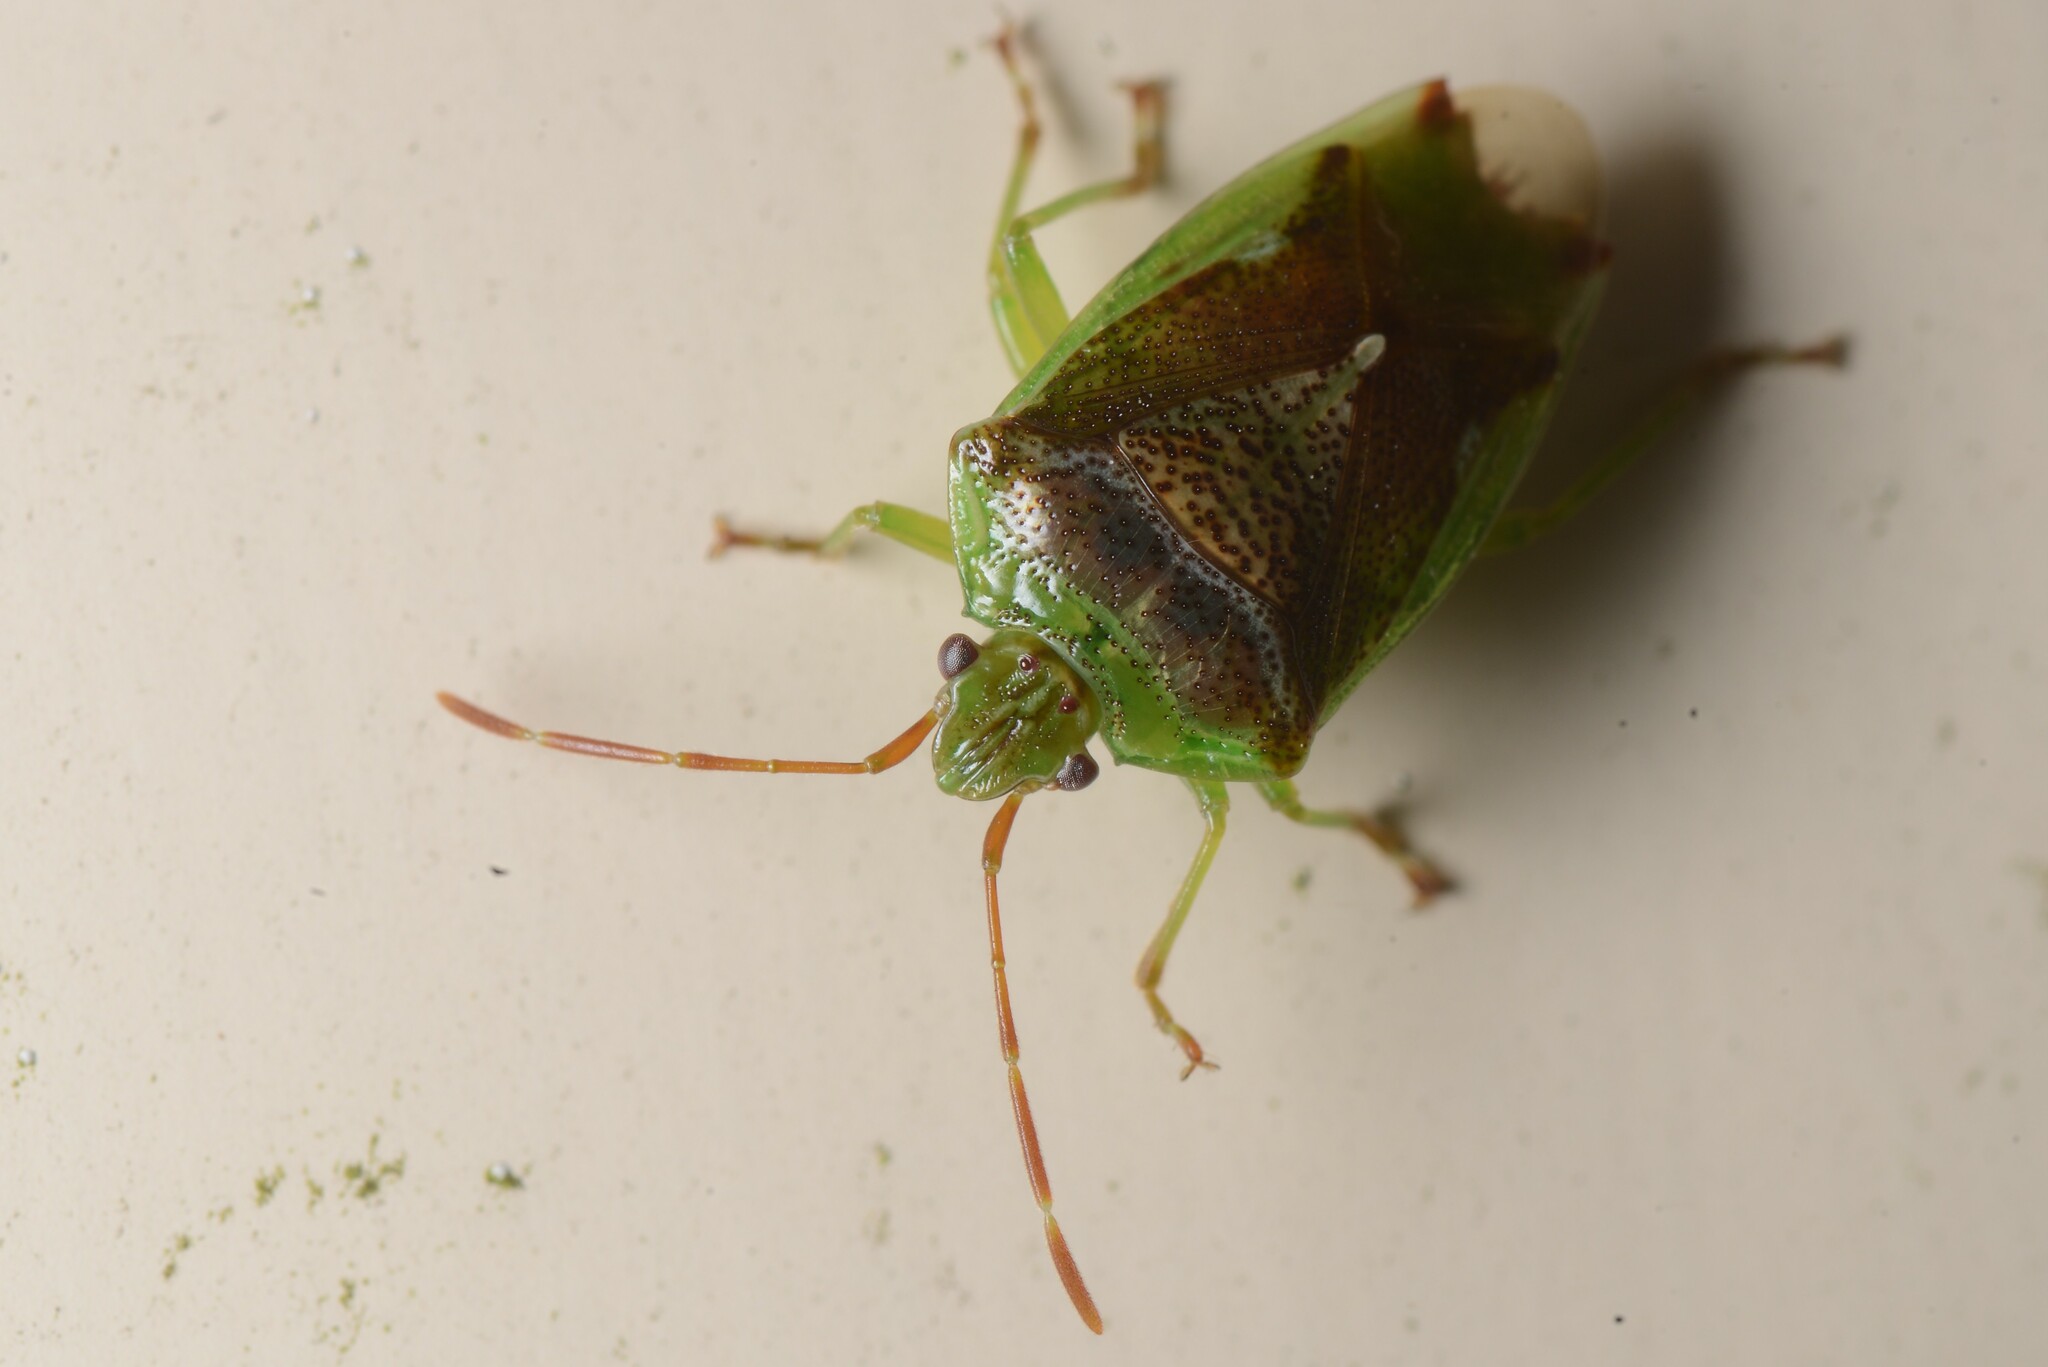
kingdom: Animalia
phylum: Arthropoda
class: Insecta
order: Hemiptera
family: Acanthosomatidae
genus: Oncacontias
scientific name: Oncacontias vittatus
